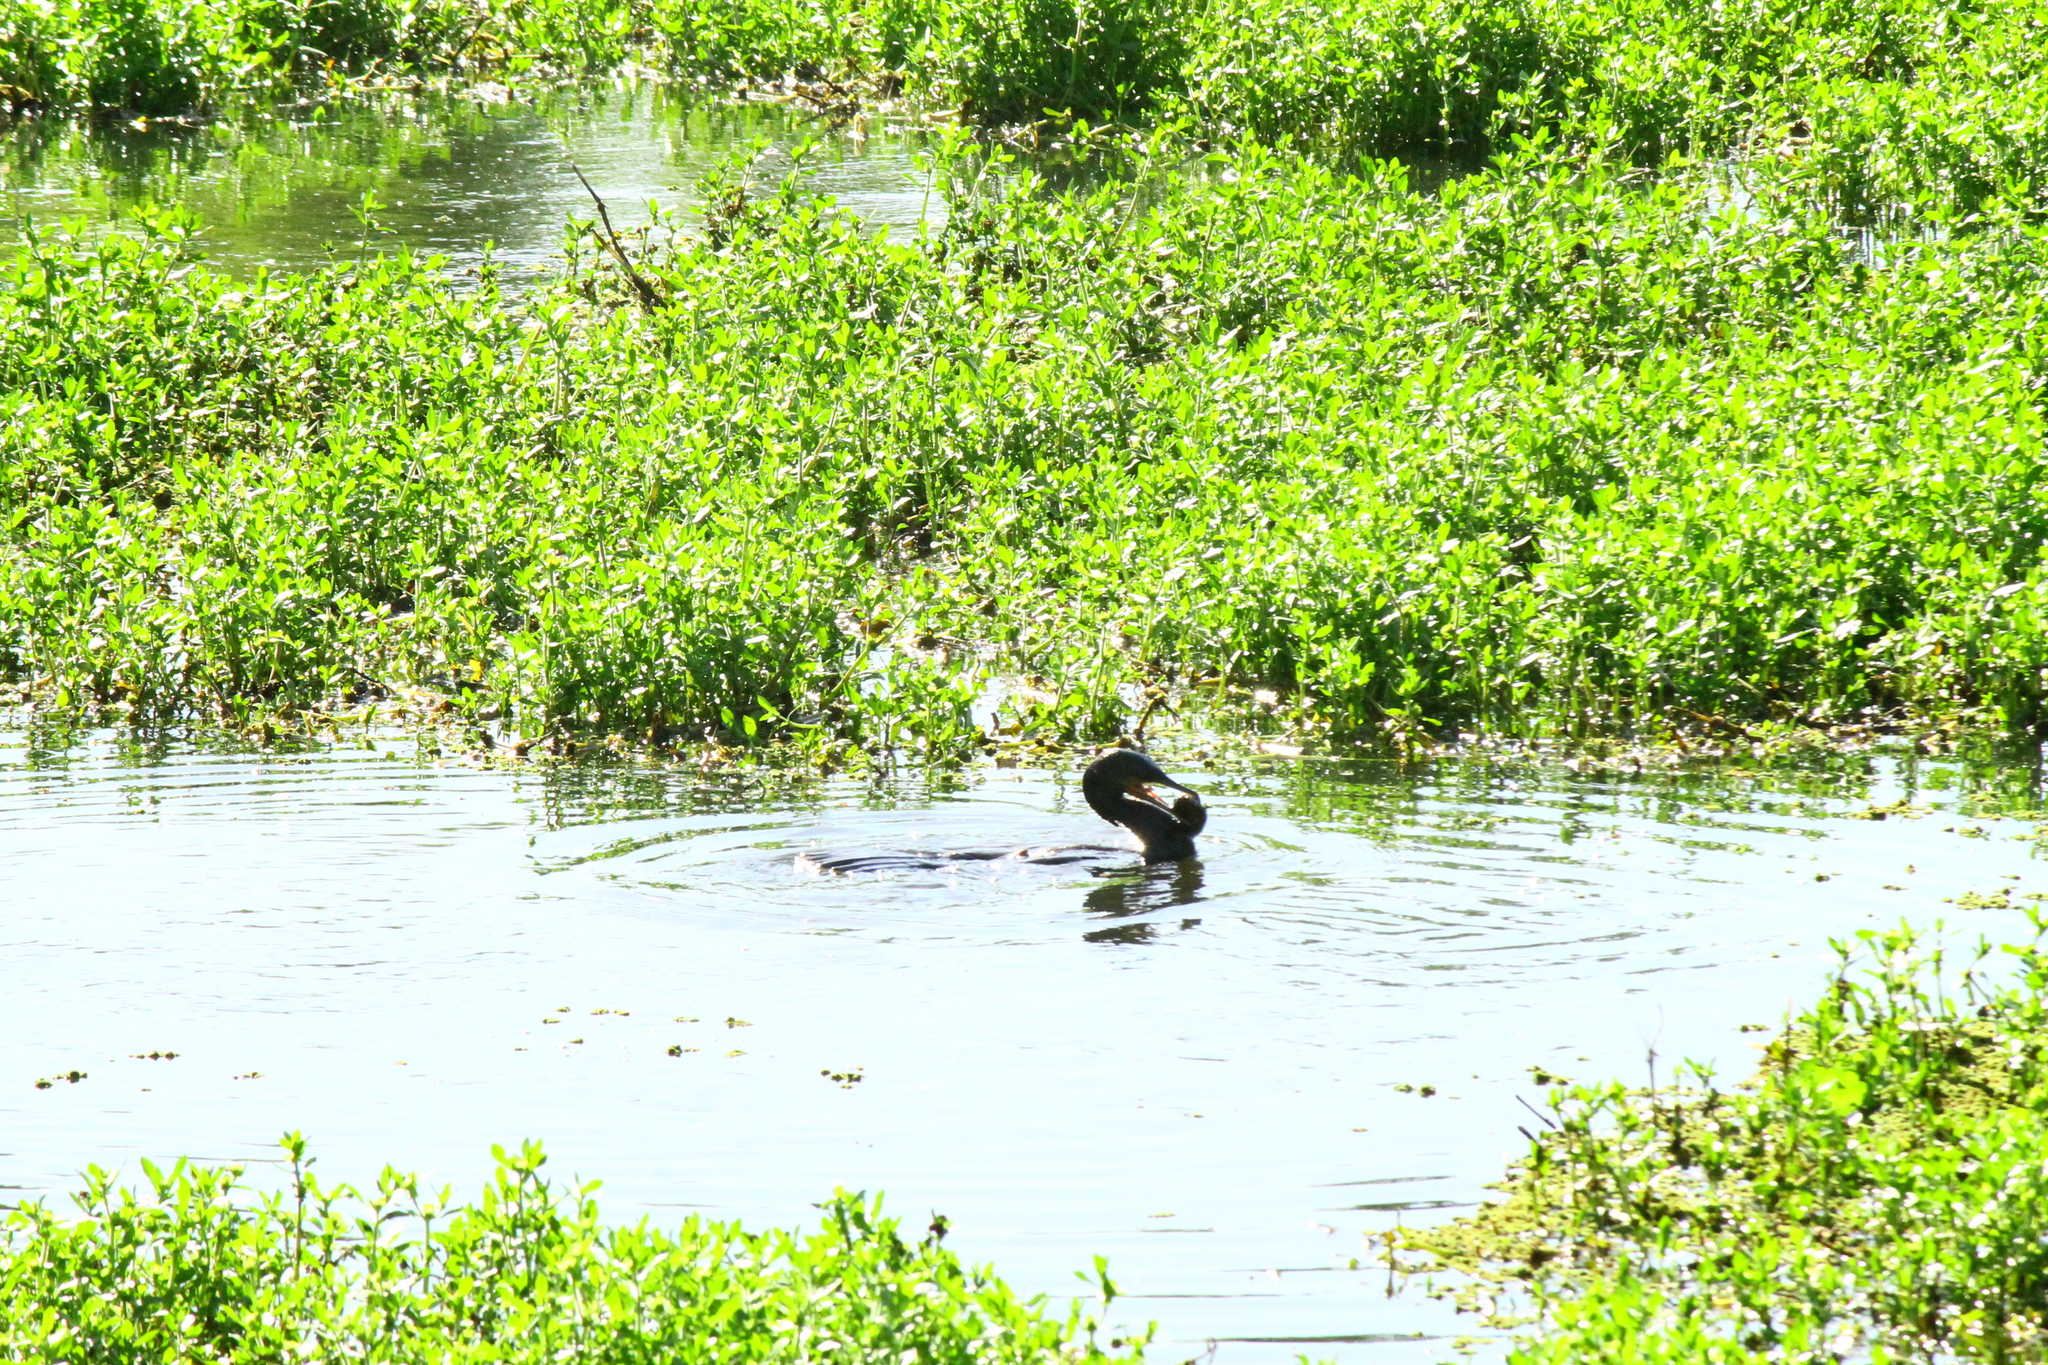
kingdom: Animalia
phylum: Chordata
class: Aves
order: Suliformes
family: Phalacrocoracidae
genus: Phalacrocorax
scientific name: Phalacrocorax brasilianus
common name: Neotropic cormorant
